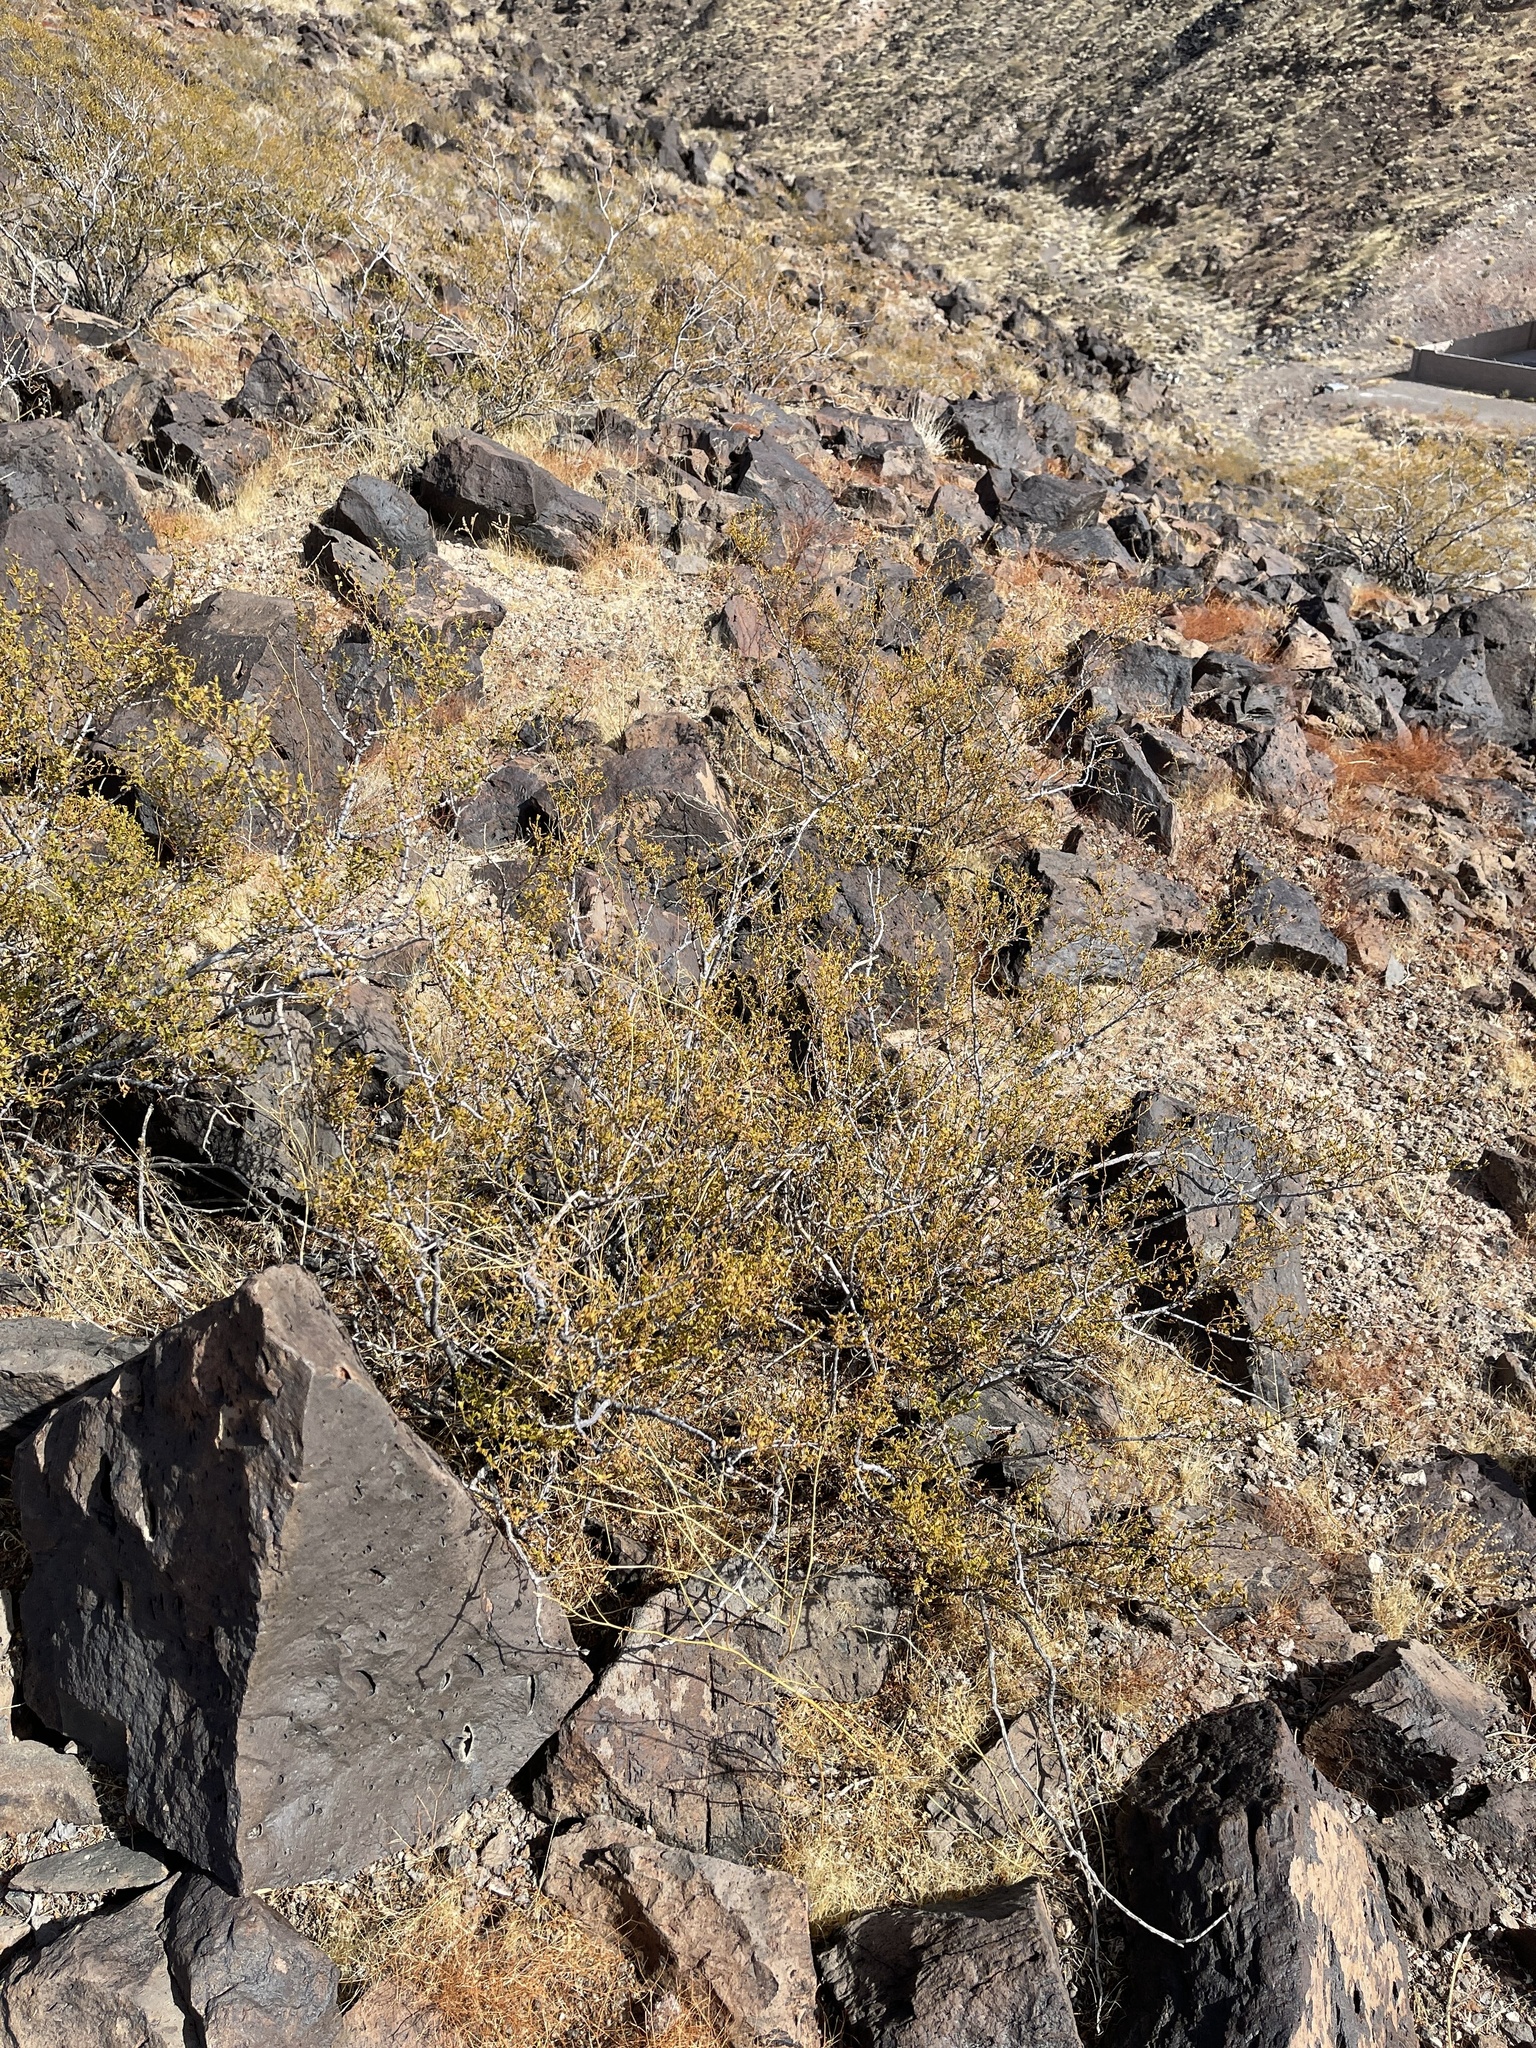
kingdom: Plantae
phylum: Tracheophyta
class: Magnoliopsida
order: Zygophyllales
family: Zygophyllaceae
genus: Larrea
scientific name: Larrea tridentata
